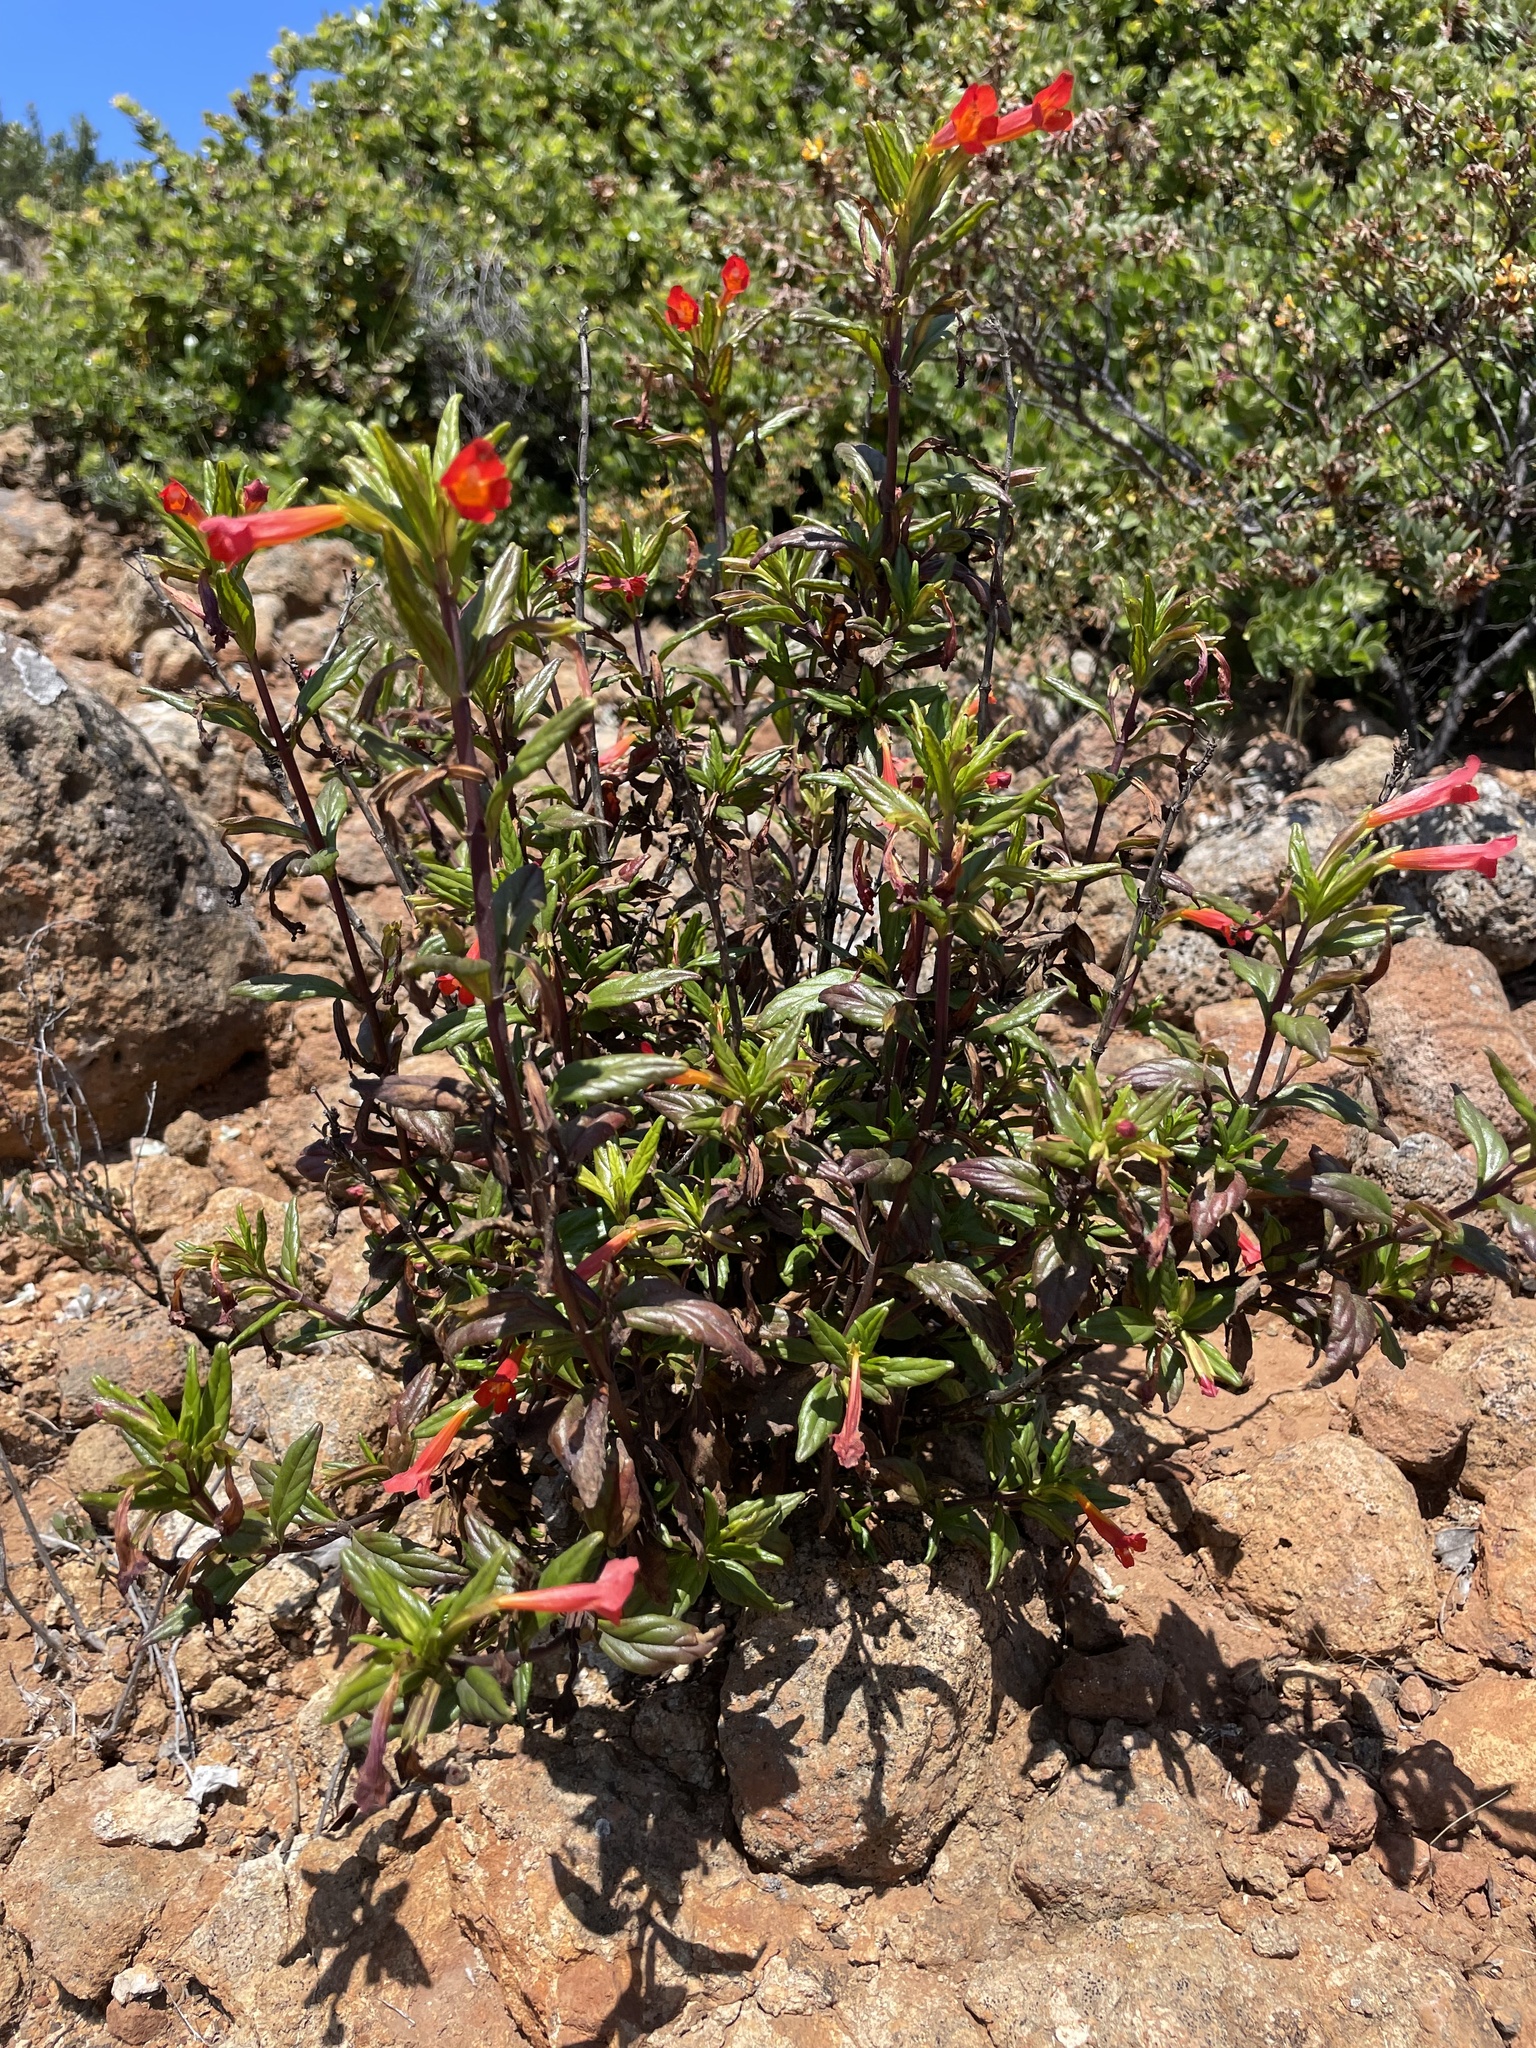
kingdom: Plantae
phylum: Tracheophyta
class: Magnoliopsida
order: Lamiales
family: Phrymaceae
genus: Diplacus
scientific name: Diplacus parviflorus
